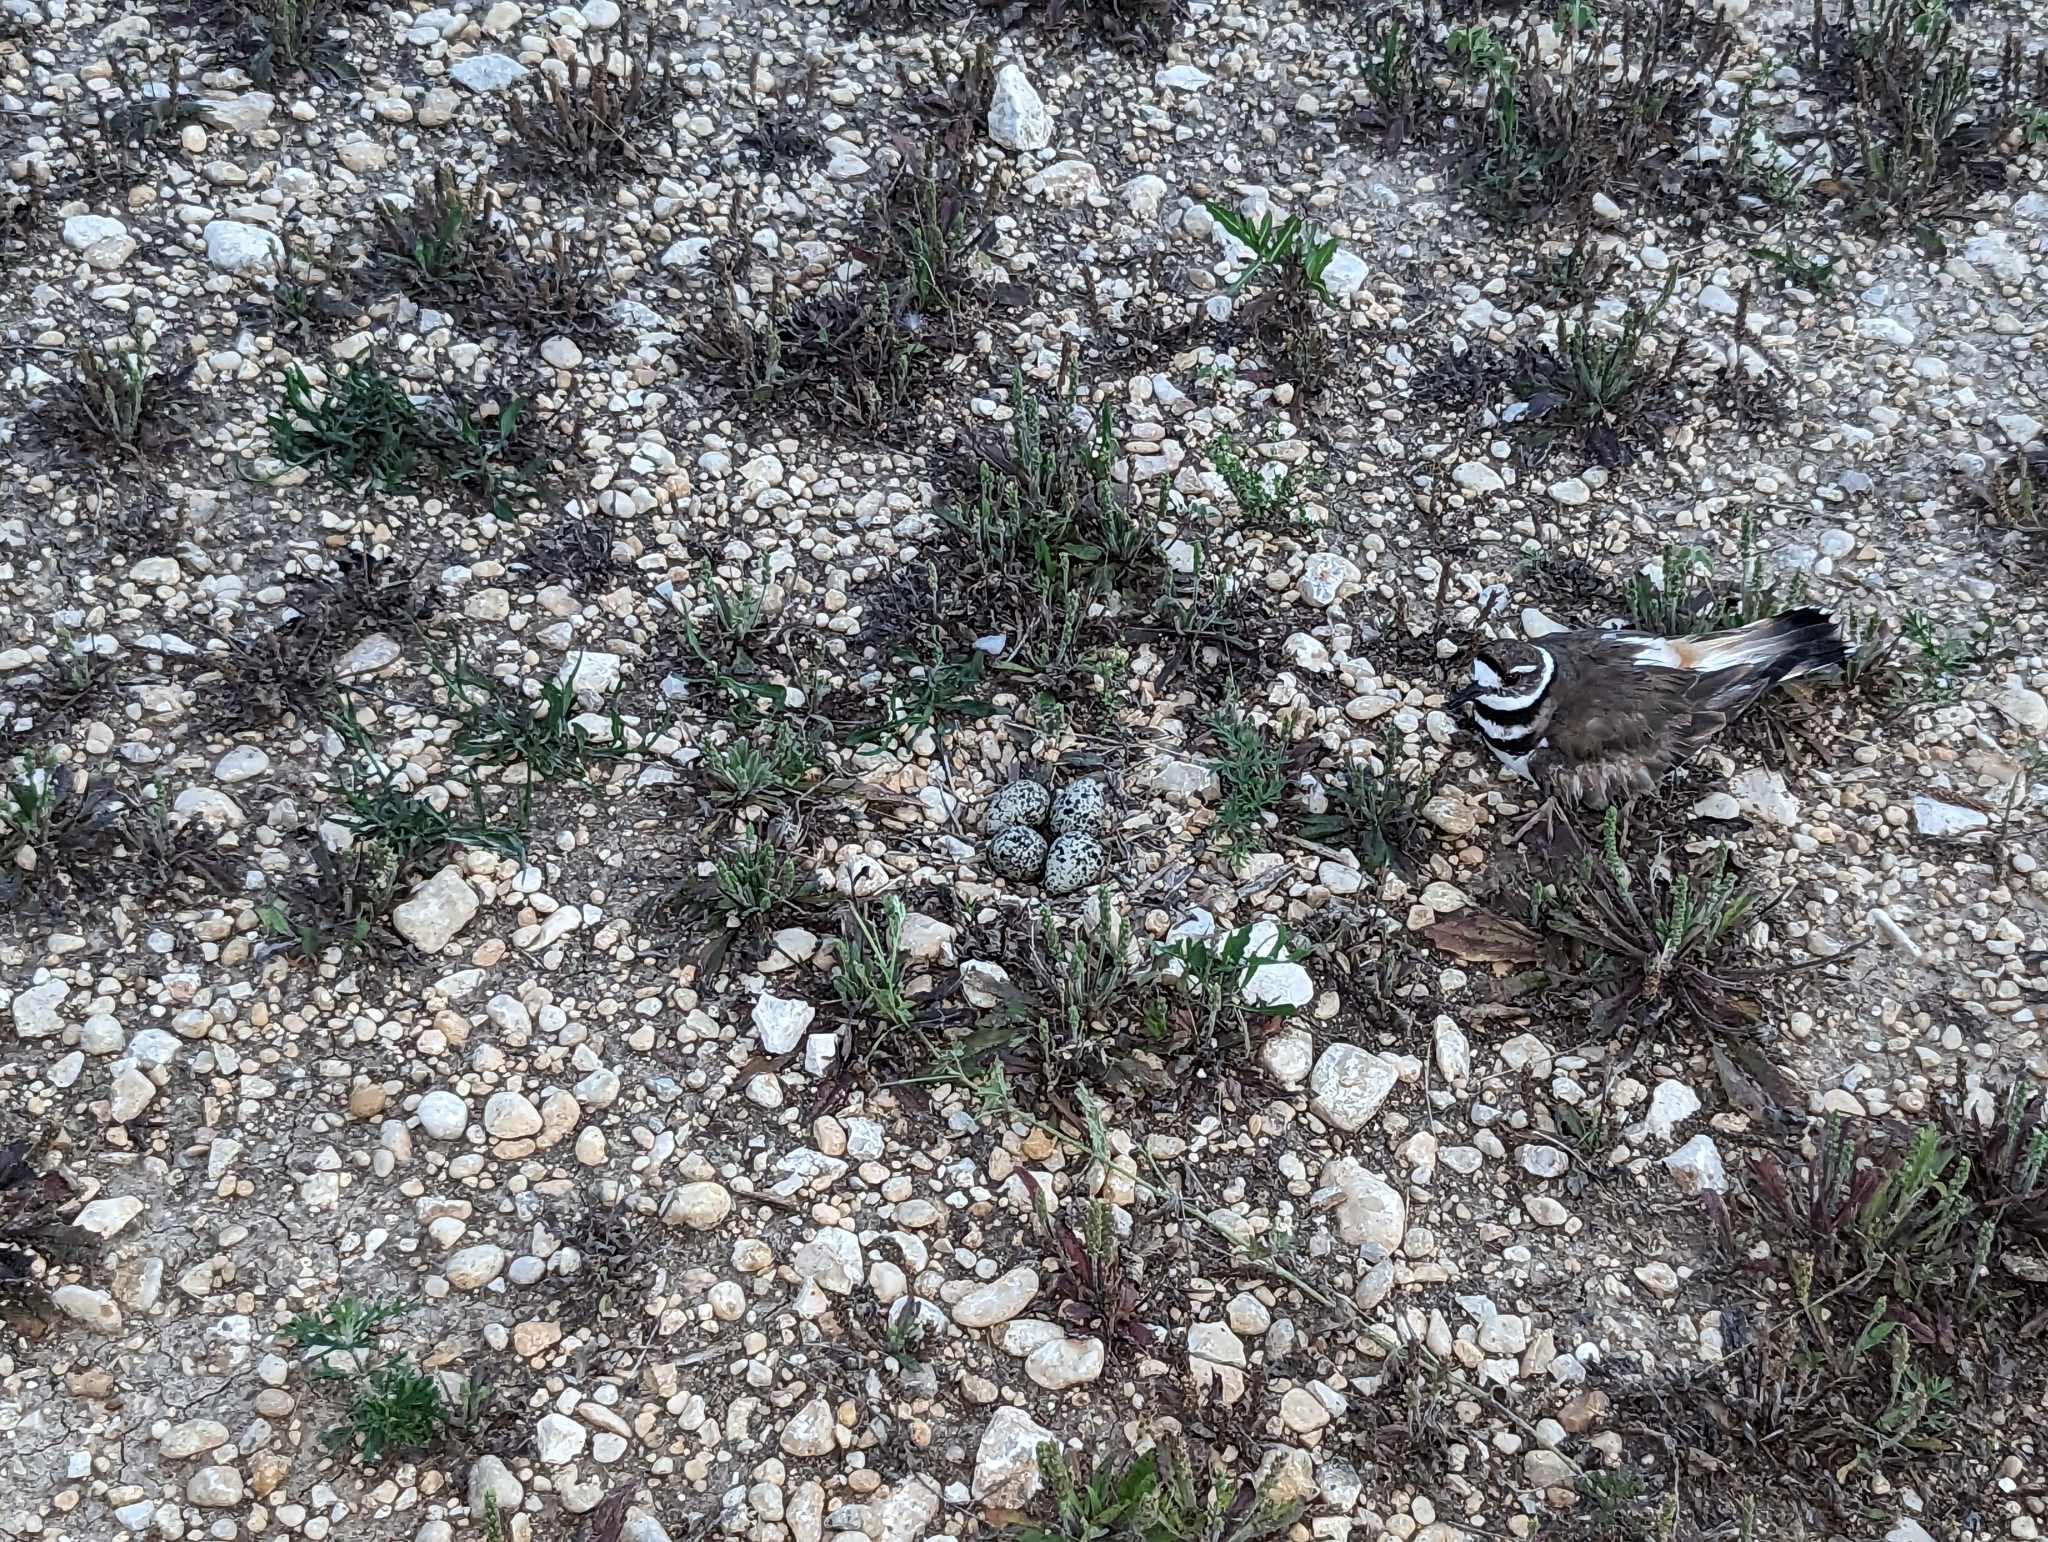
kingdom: Animalia
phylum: Chordata
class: Aves
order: Charadriiformes
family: Charadriidae
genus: Charadrius
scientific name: Charadrius vociferus
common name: Killdeer
